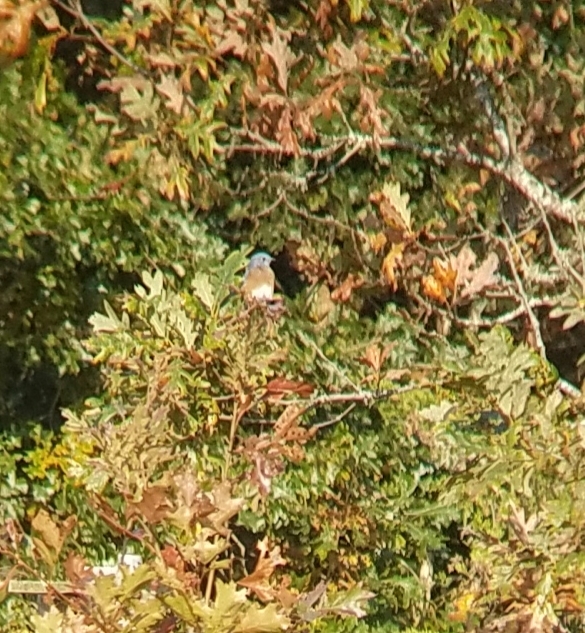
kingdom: Animalia
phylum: Chordata
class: Aves
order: Passeriformes
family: Turdidae
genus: Sialia
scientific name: Sialia sialis
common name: Eastern bluebird
